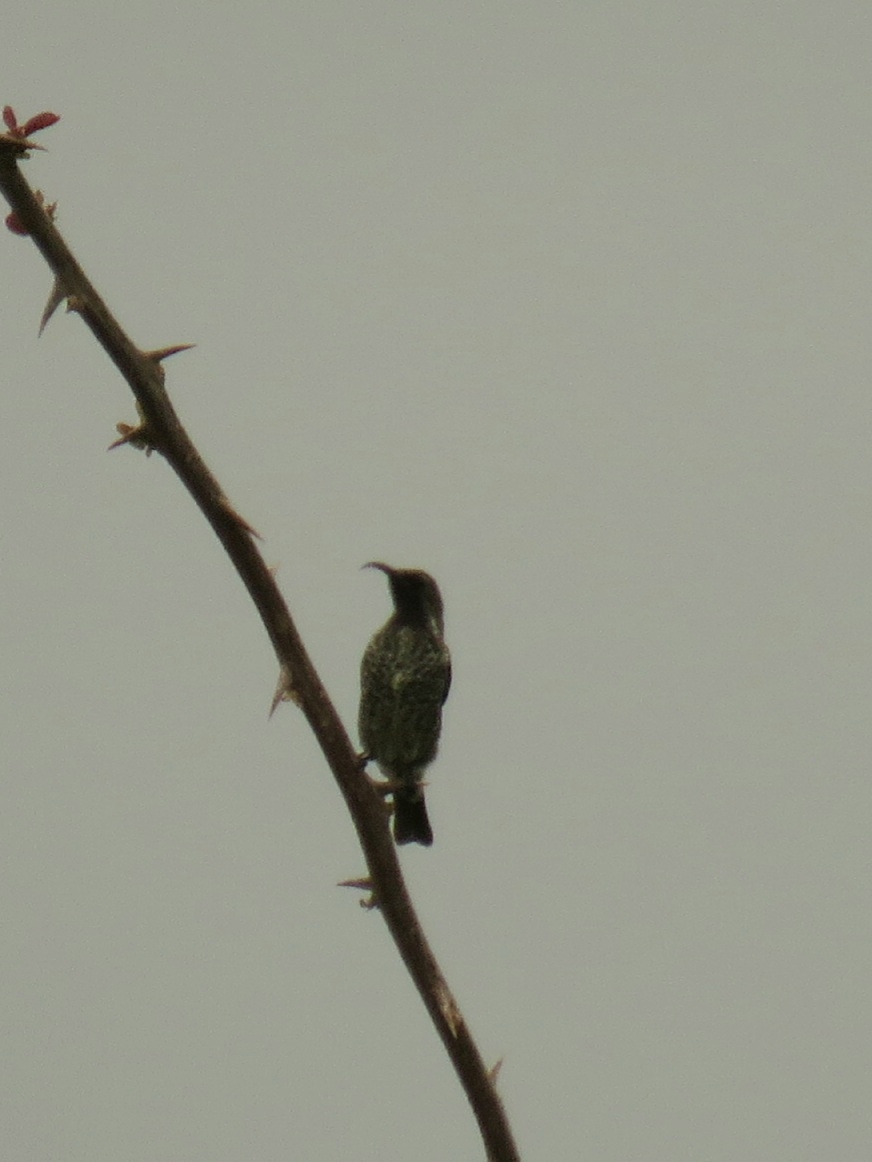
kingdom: Animalia
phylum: Chordata
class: Aves
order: Passeriformes
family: Nectariniidae
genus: Chalcomitra
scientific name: Chalcomitra amethystina
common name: Amethyst sunbird
